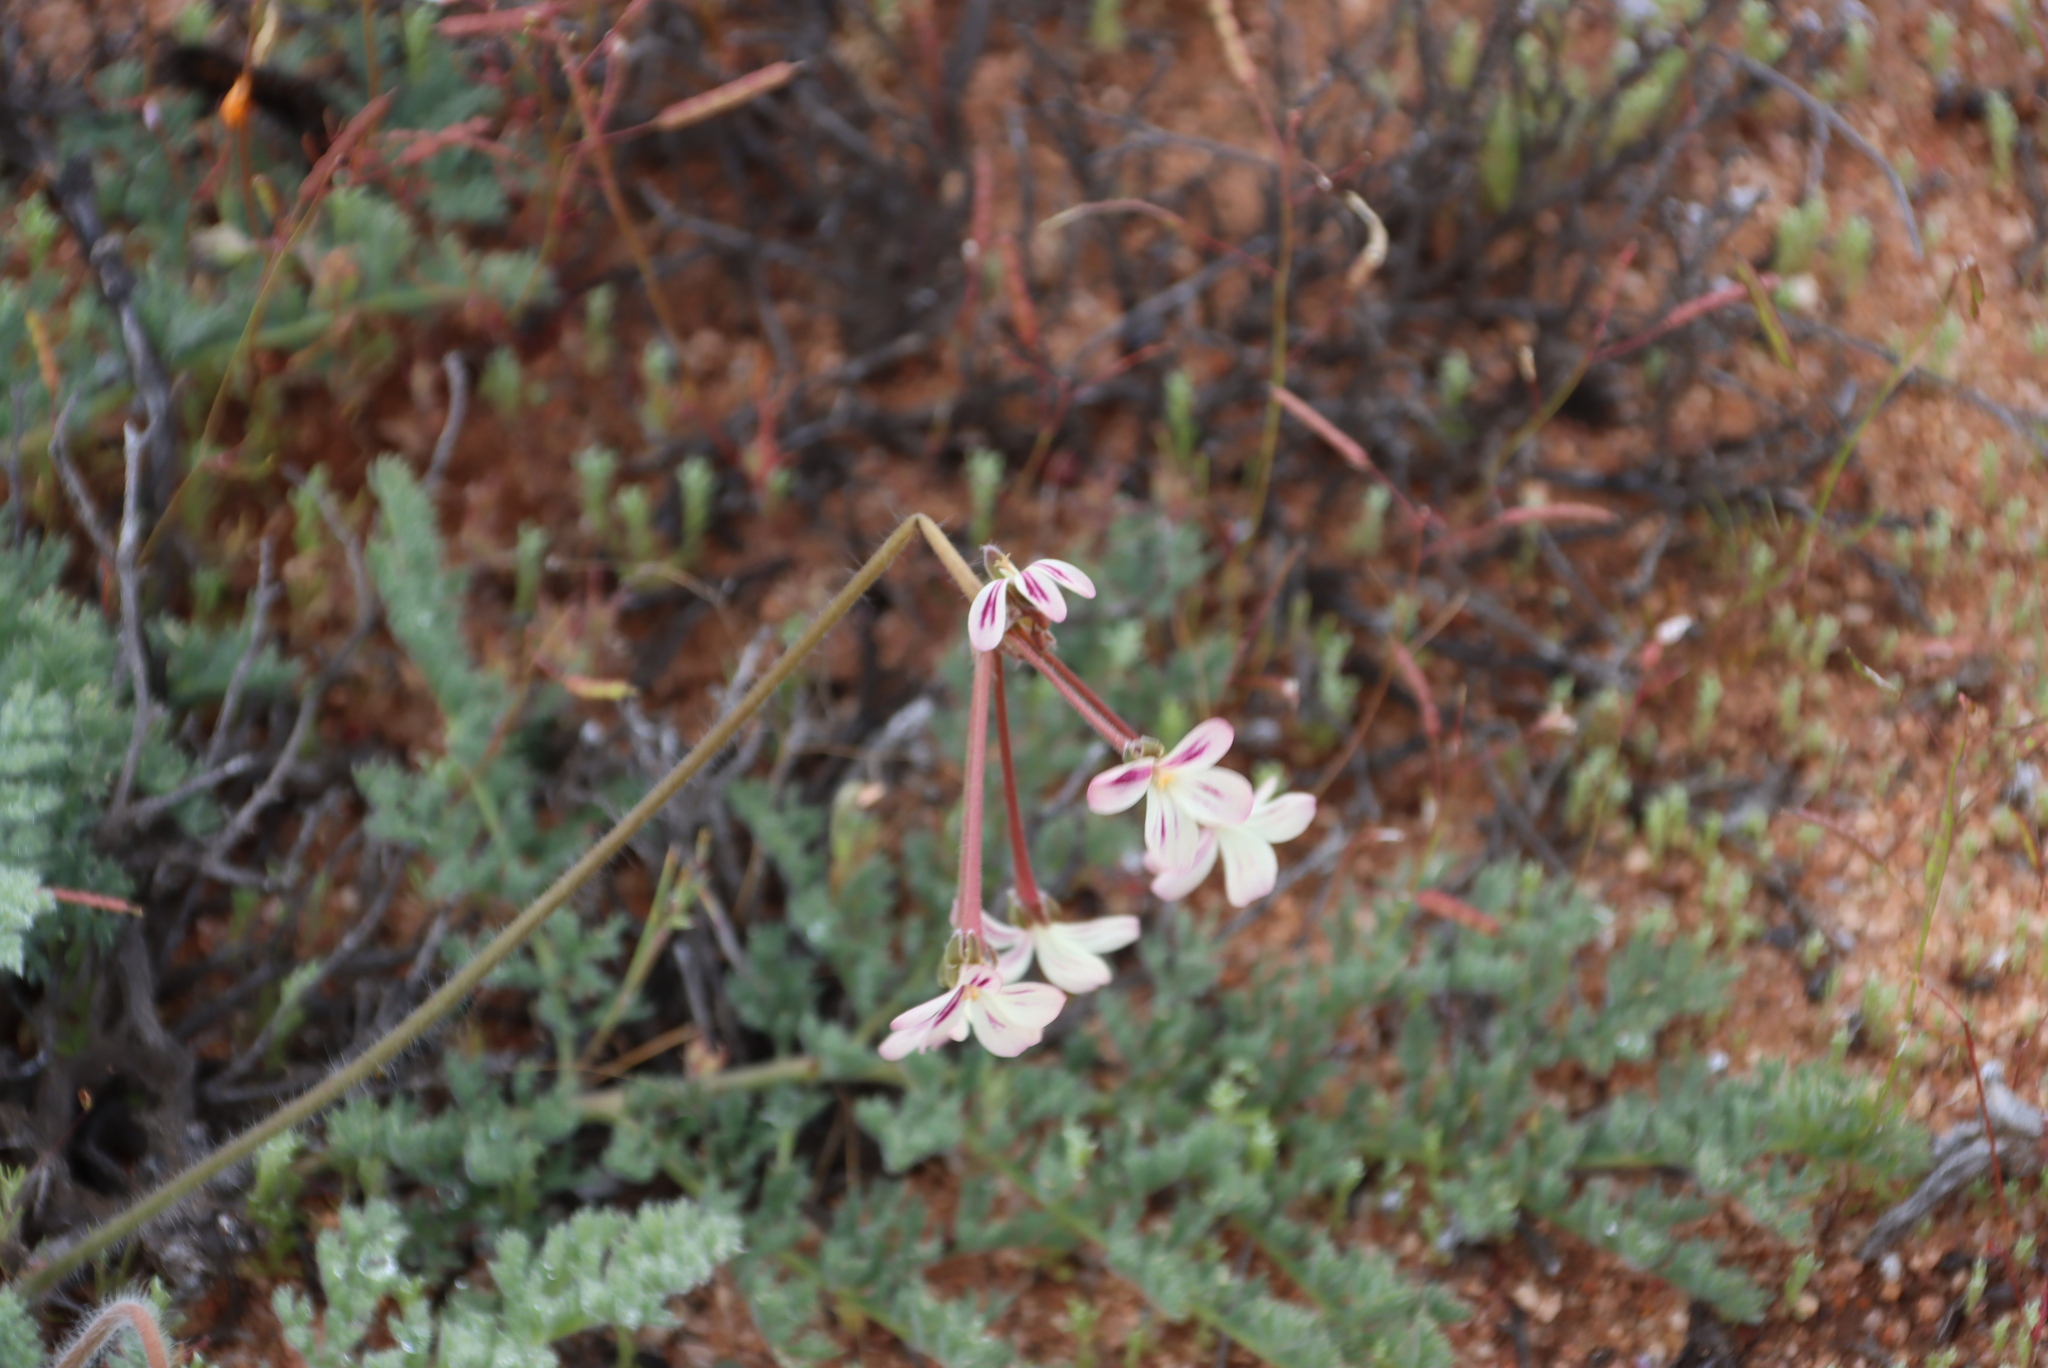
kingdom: Plantae
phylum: Tracheophyta
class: Magnoliopsida
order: Geraniales
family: Geraniaceae
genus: Pelargonium
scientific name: Pelargonium triste
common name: Night-scent pelargonium
